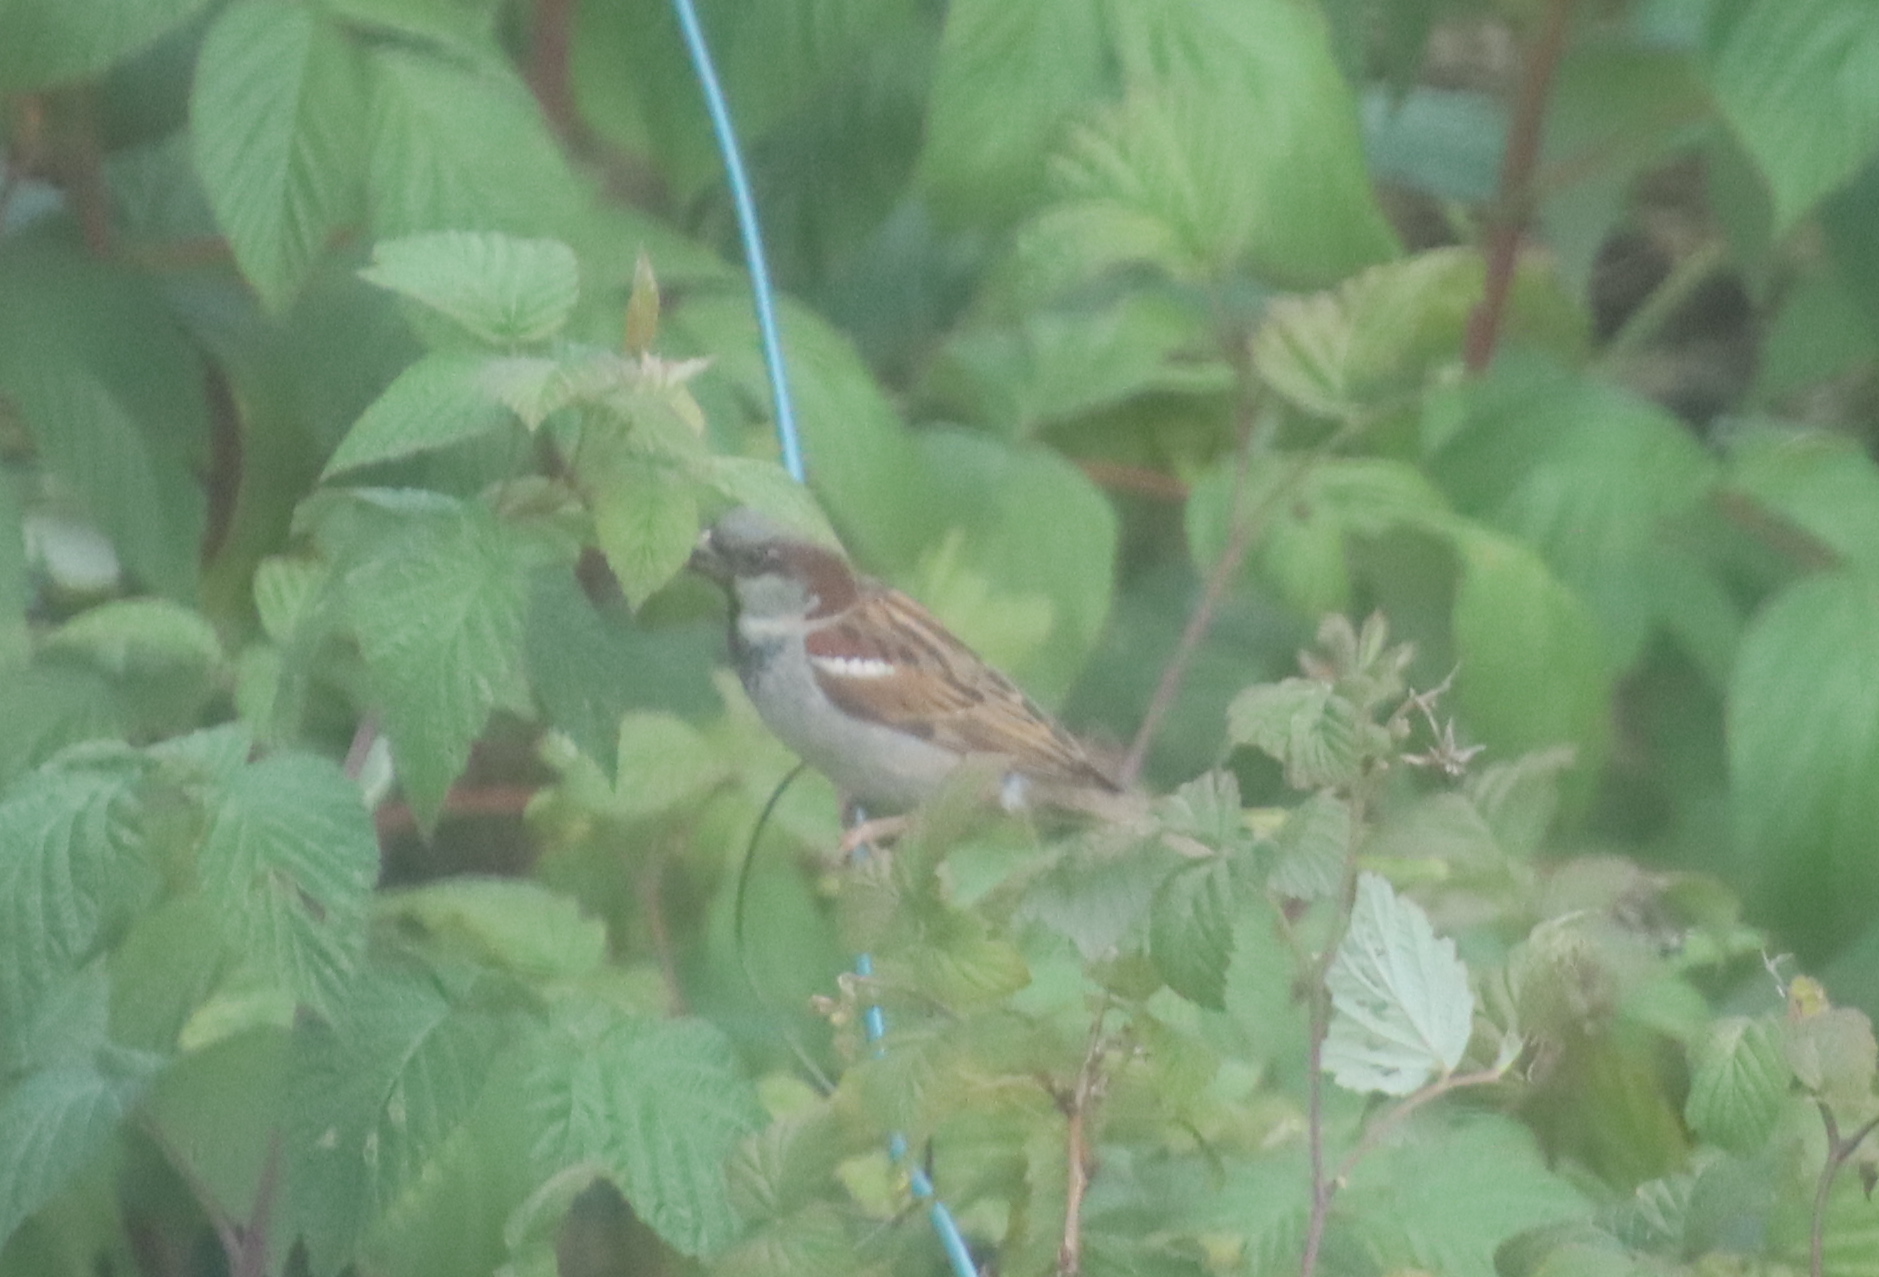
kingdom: Animalia
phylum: Chordata
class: Aves
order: Passeriformes
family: Passeridae
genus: Passer
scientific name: Passer domesticus
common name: House sparrow
